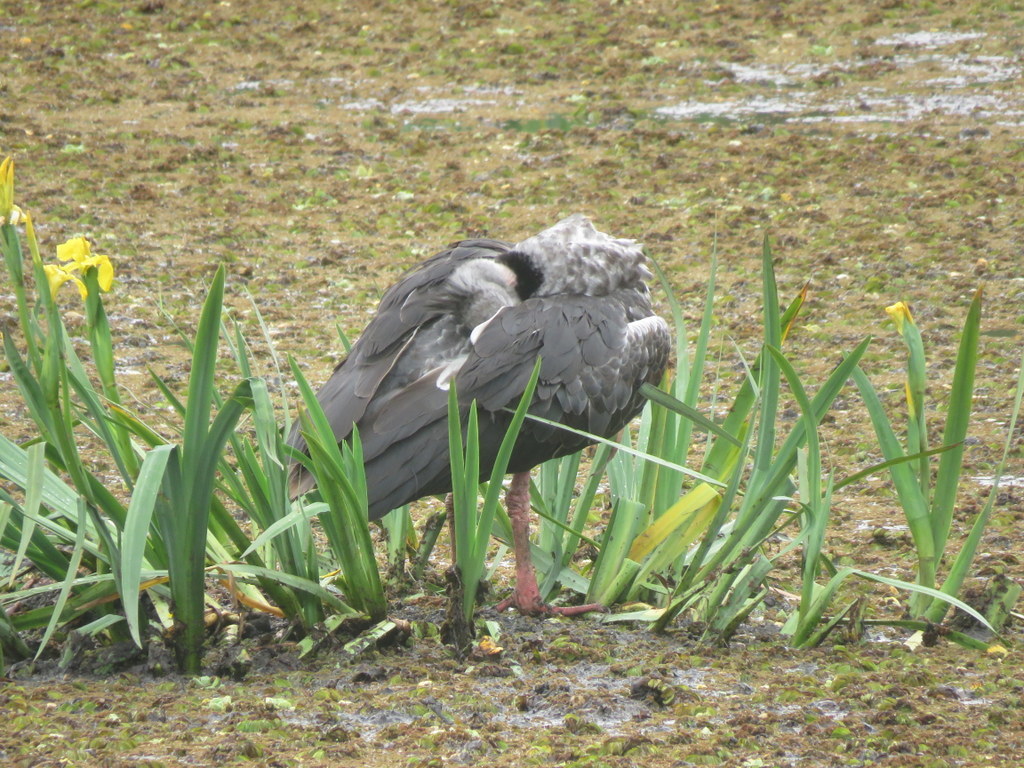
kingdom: Animalia
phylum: Chordata
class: Aves
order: Anseriformes
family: Anhimidae
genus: Chauna
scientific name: Chauna torquata
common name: Southern screamer
